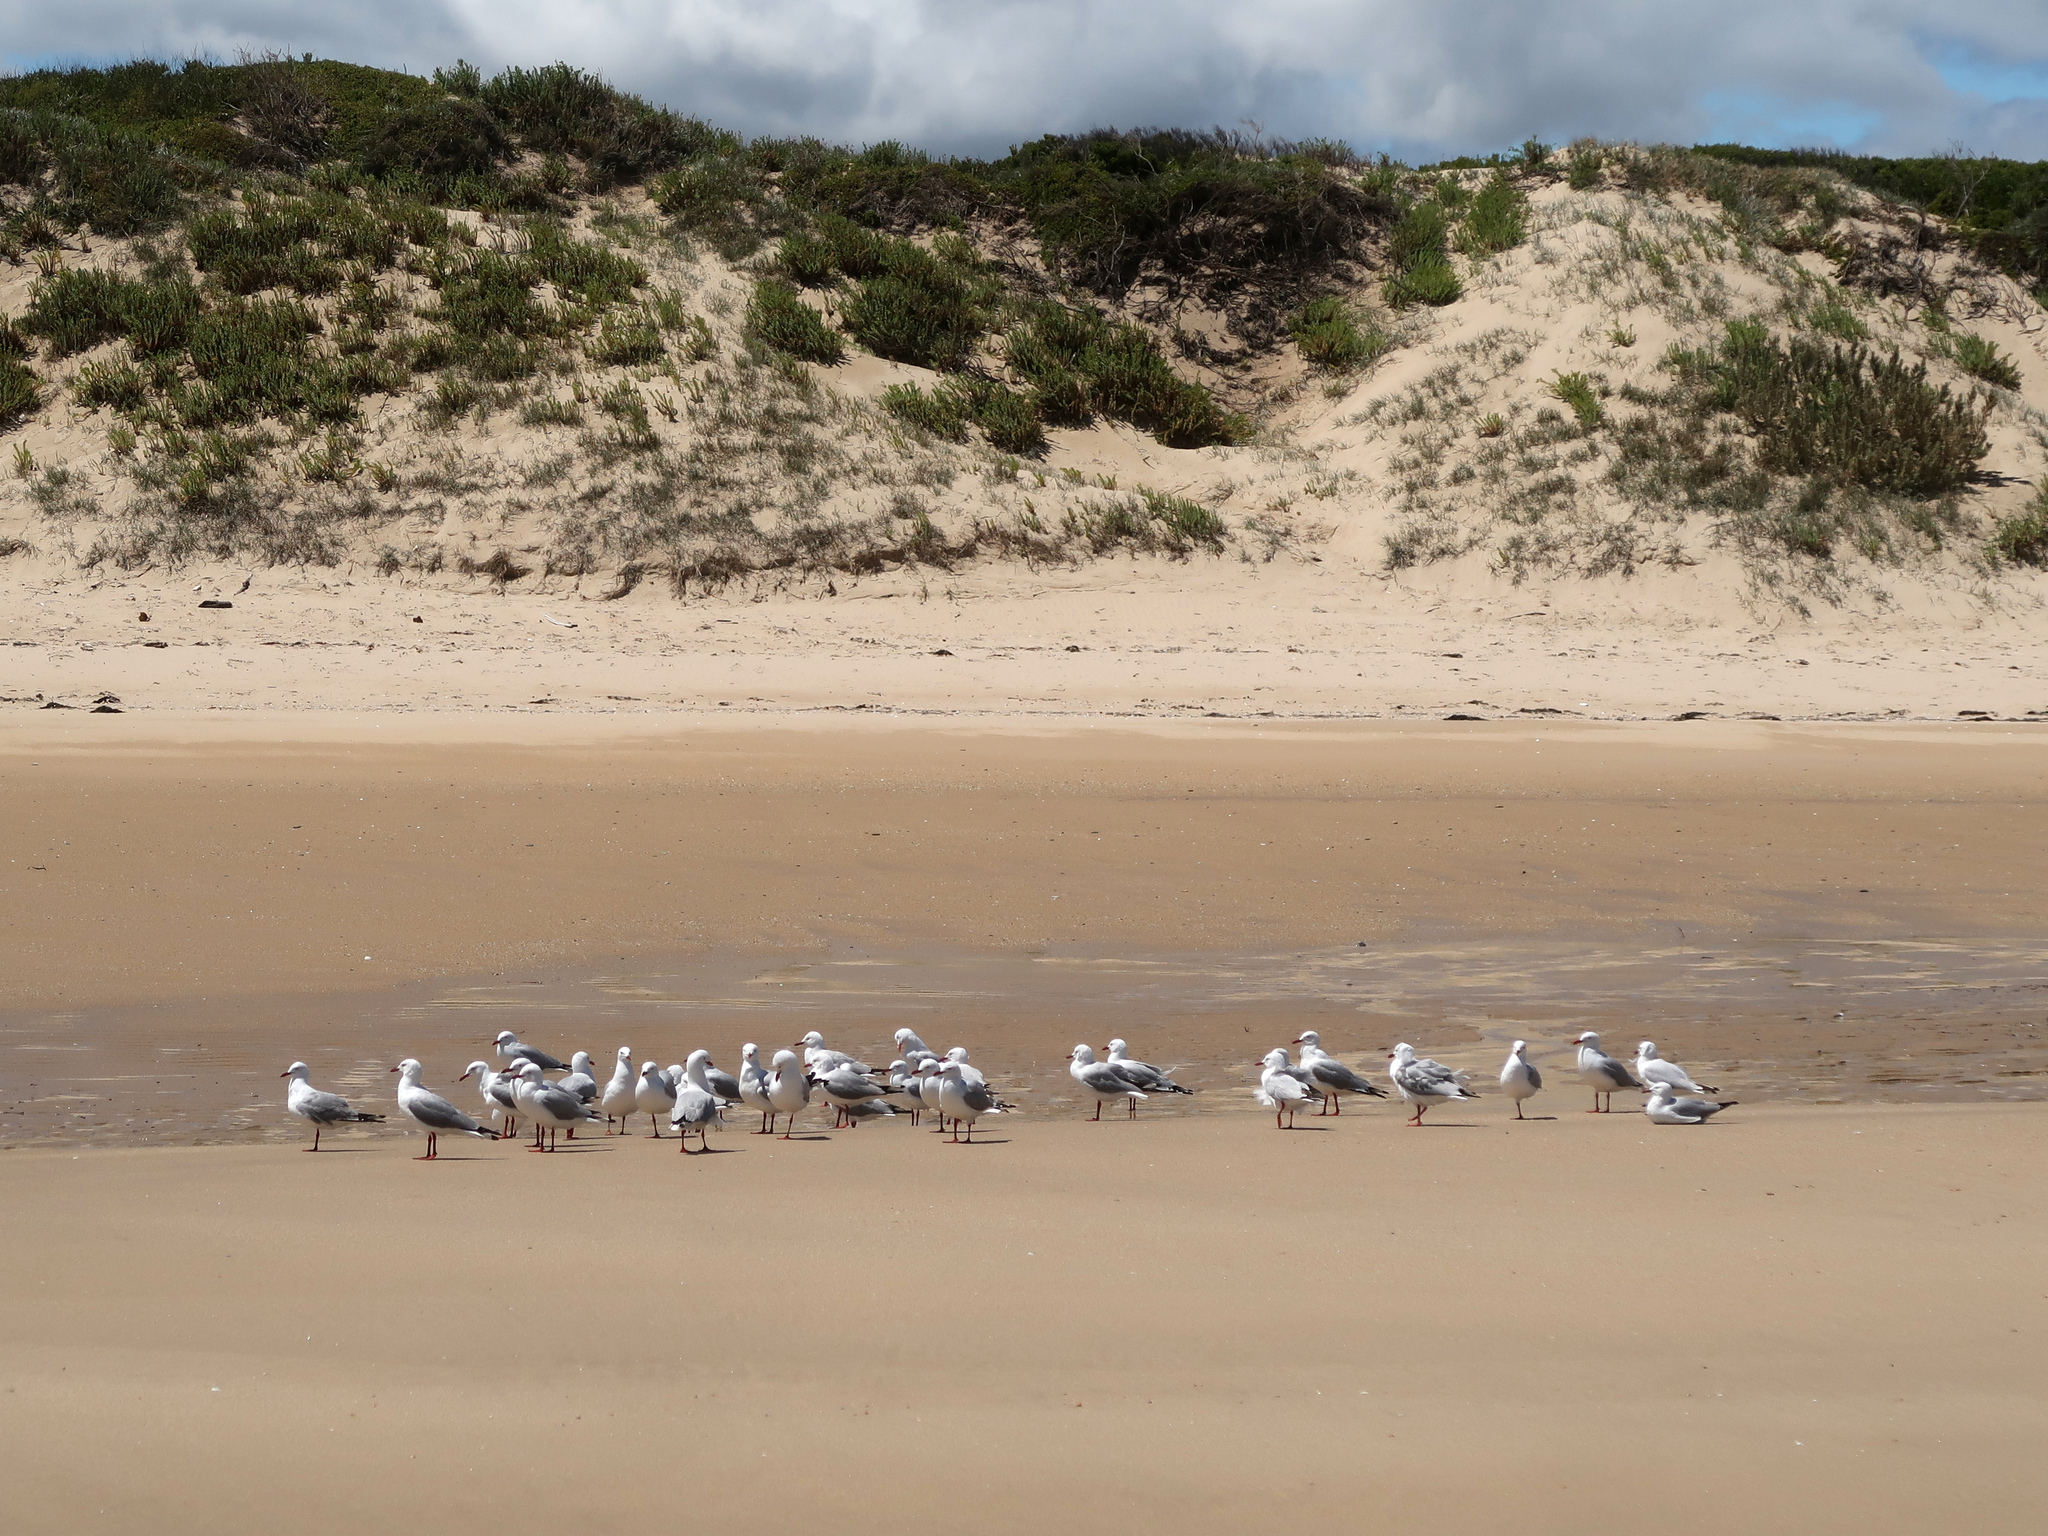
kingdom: Animalia
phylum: Chordata
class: Aves
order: Charadriiformes
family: Laridae
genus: Chroicocephalus
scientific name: Chroicocephalus novaehollandiae
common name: Silver gull
